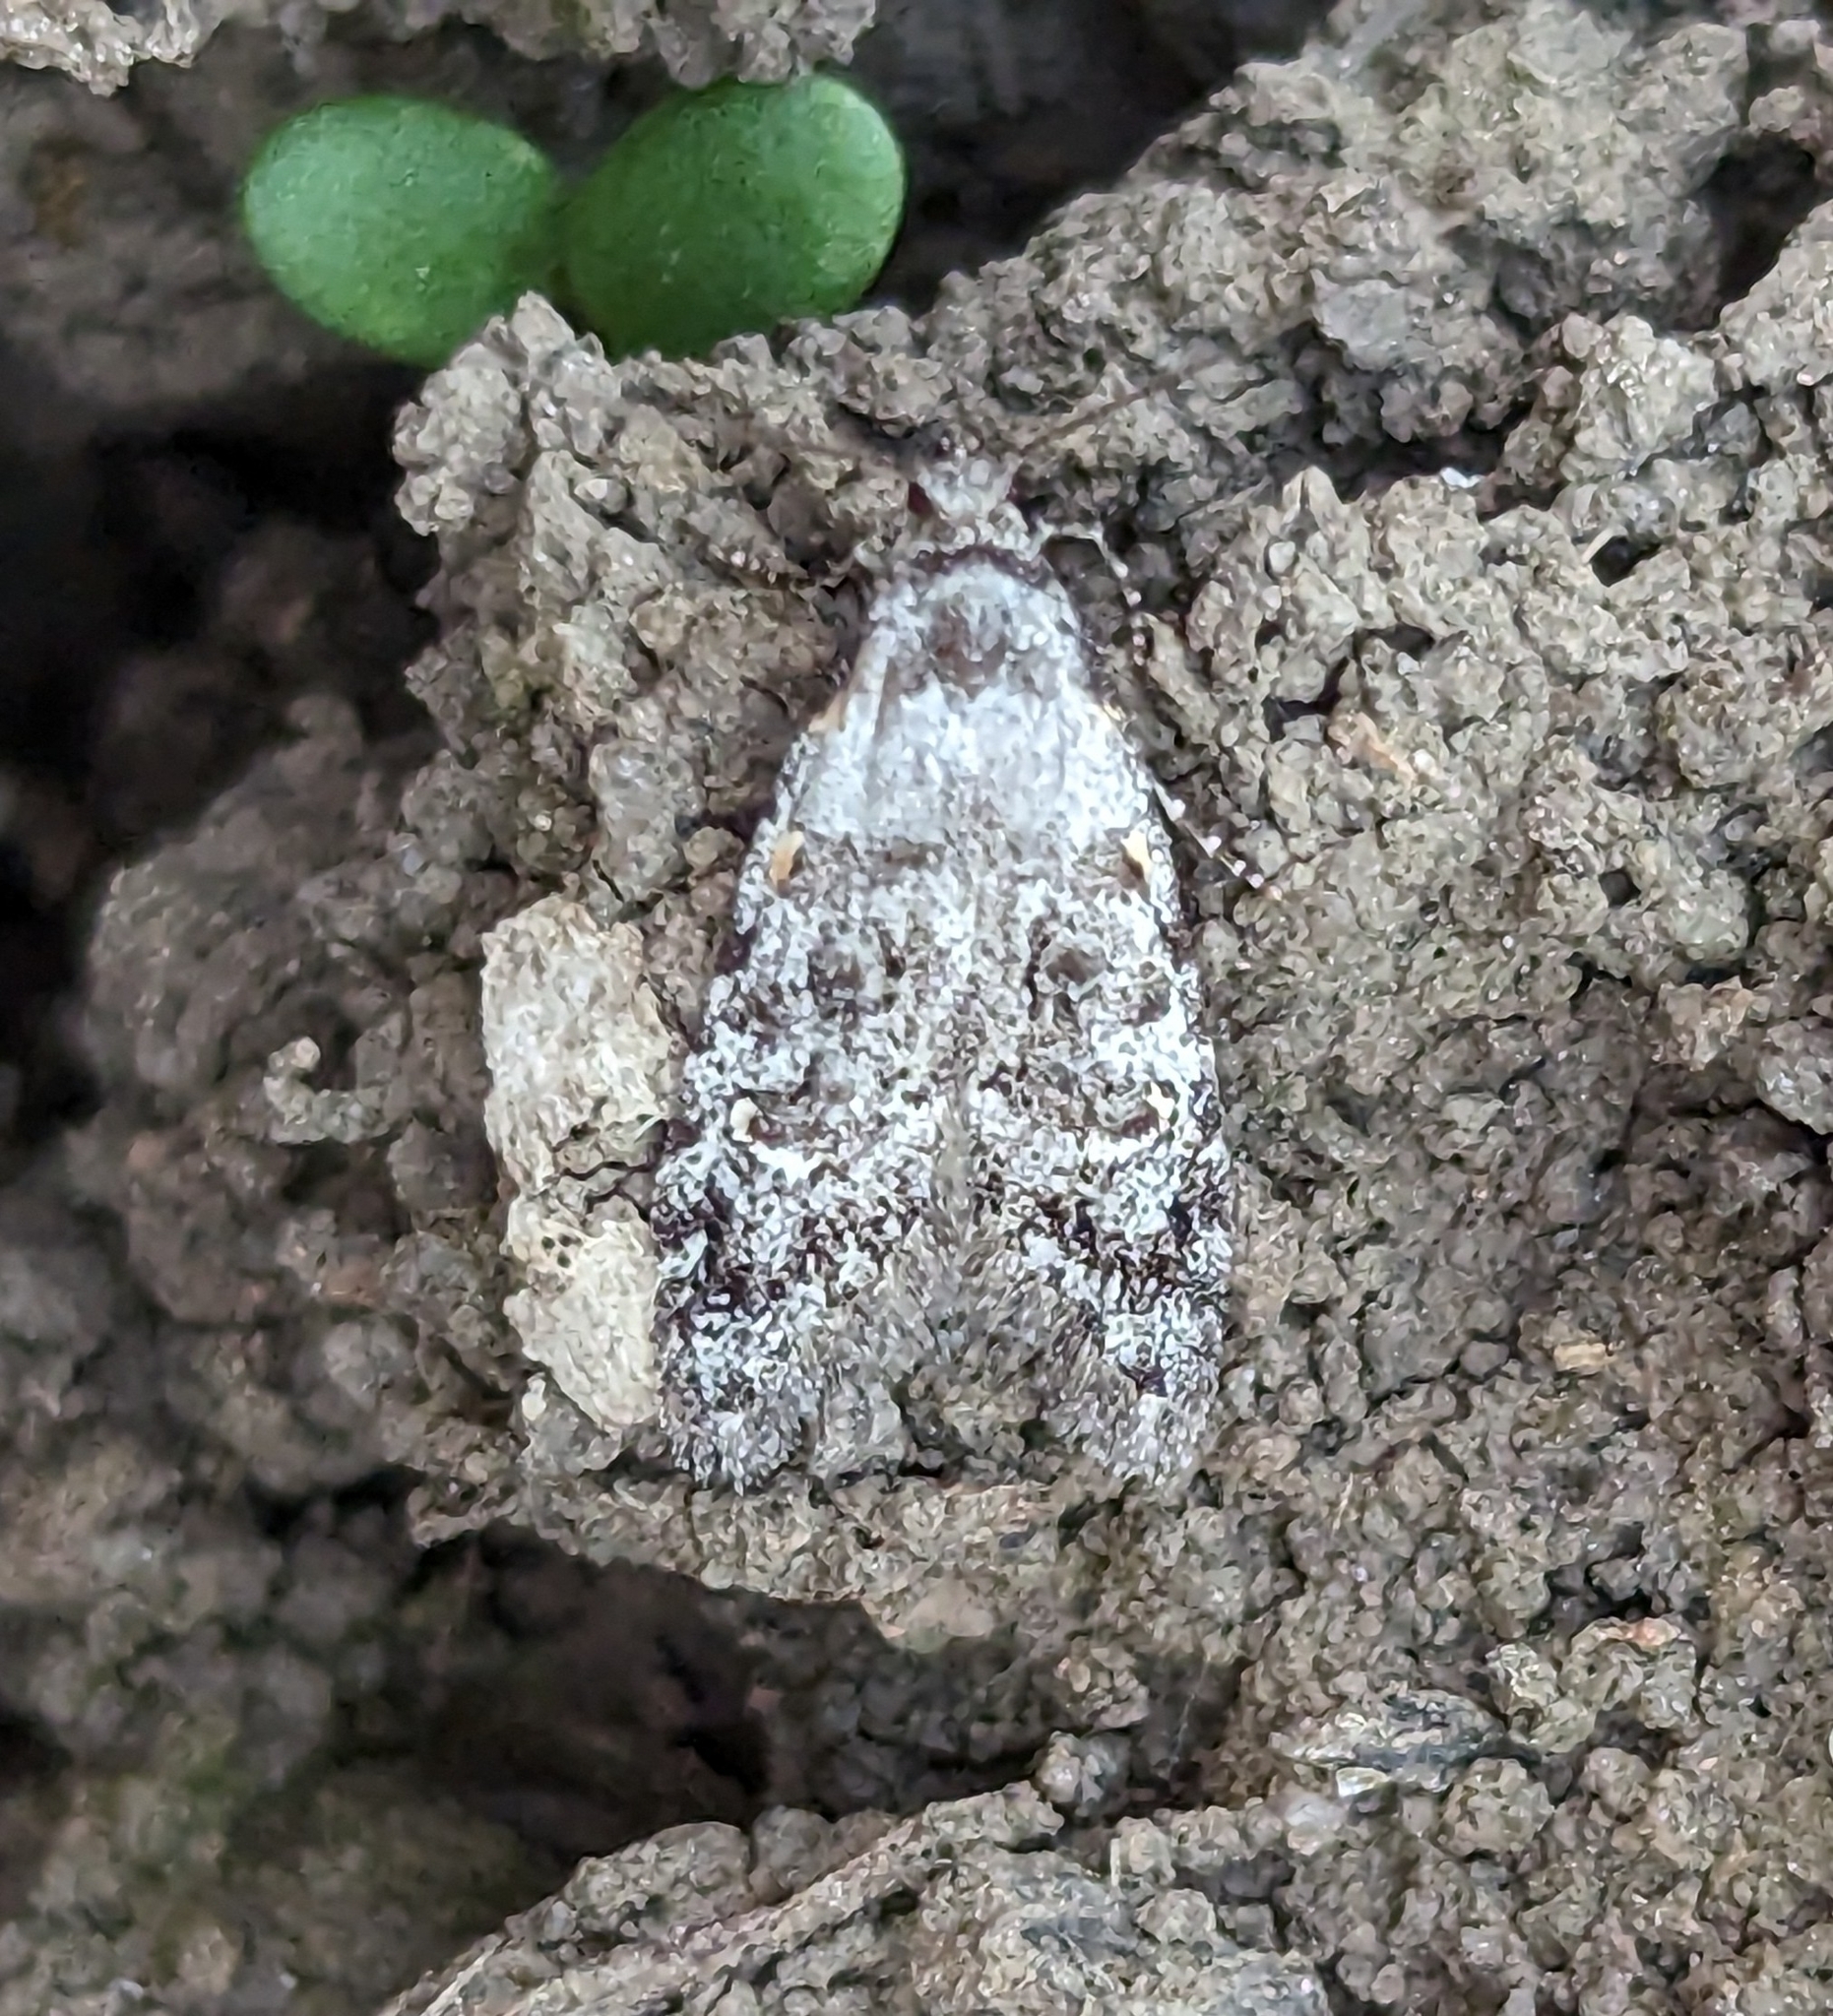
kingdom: Animalia
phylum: Arthropoda
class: Insecta
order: Lepidoptera
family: Carposinidae
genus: Bondia
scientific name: Bondia crescentella
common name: Crescent-marked bondia
